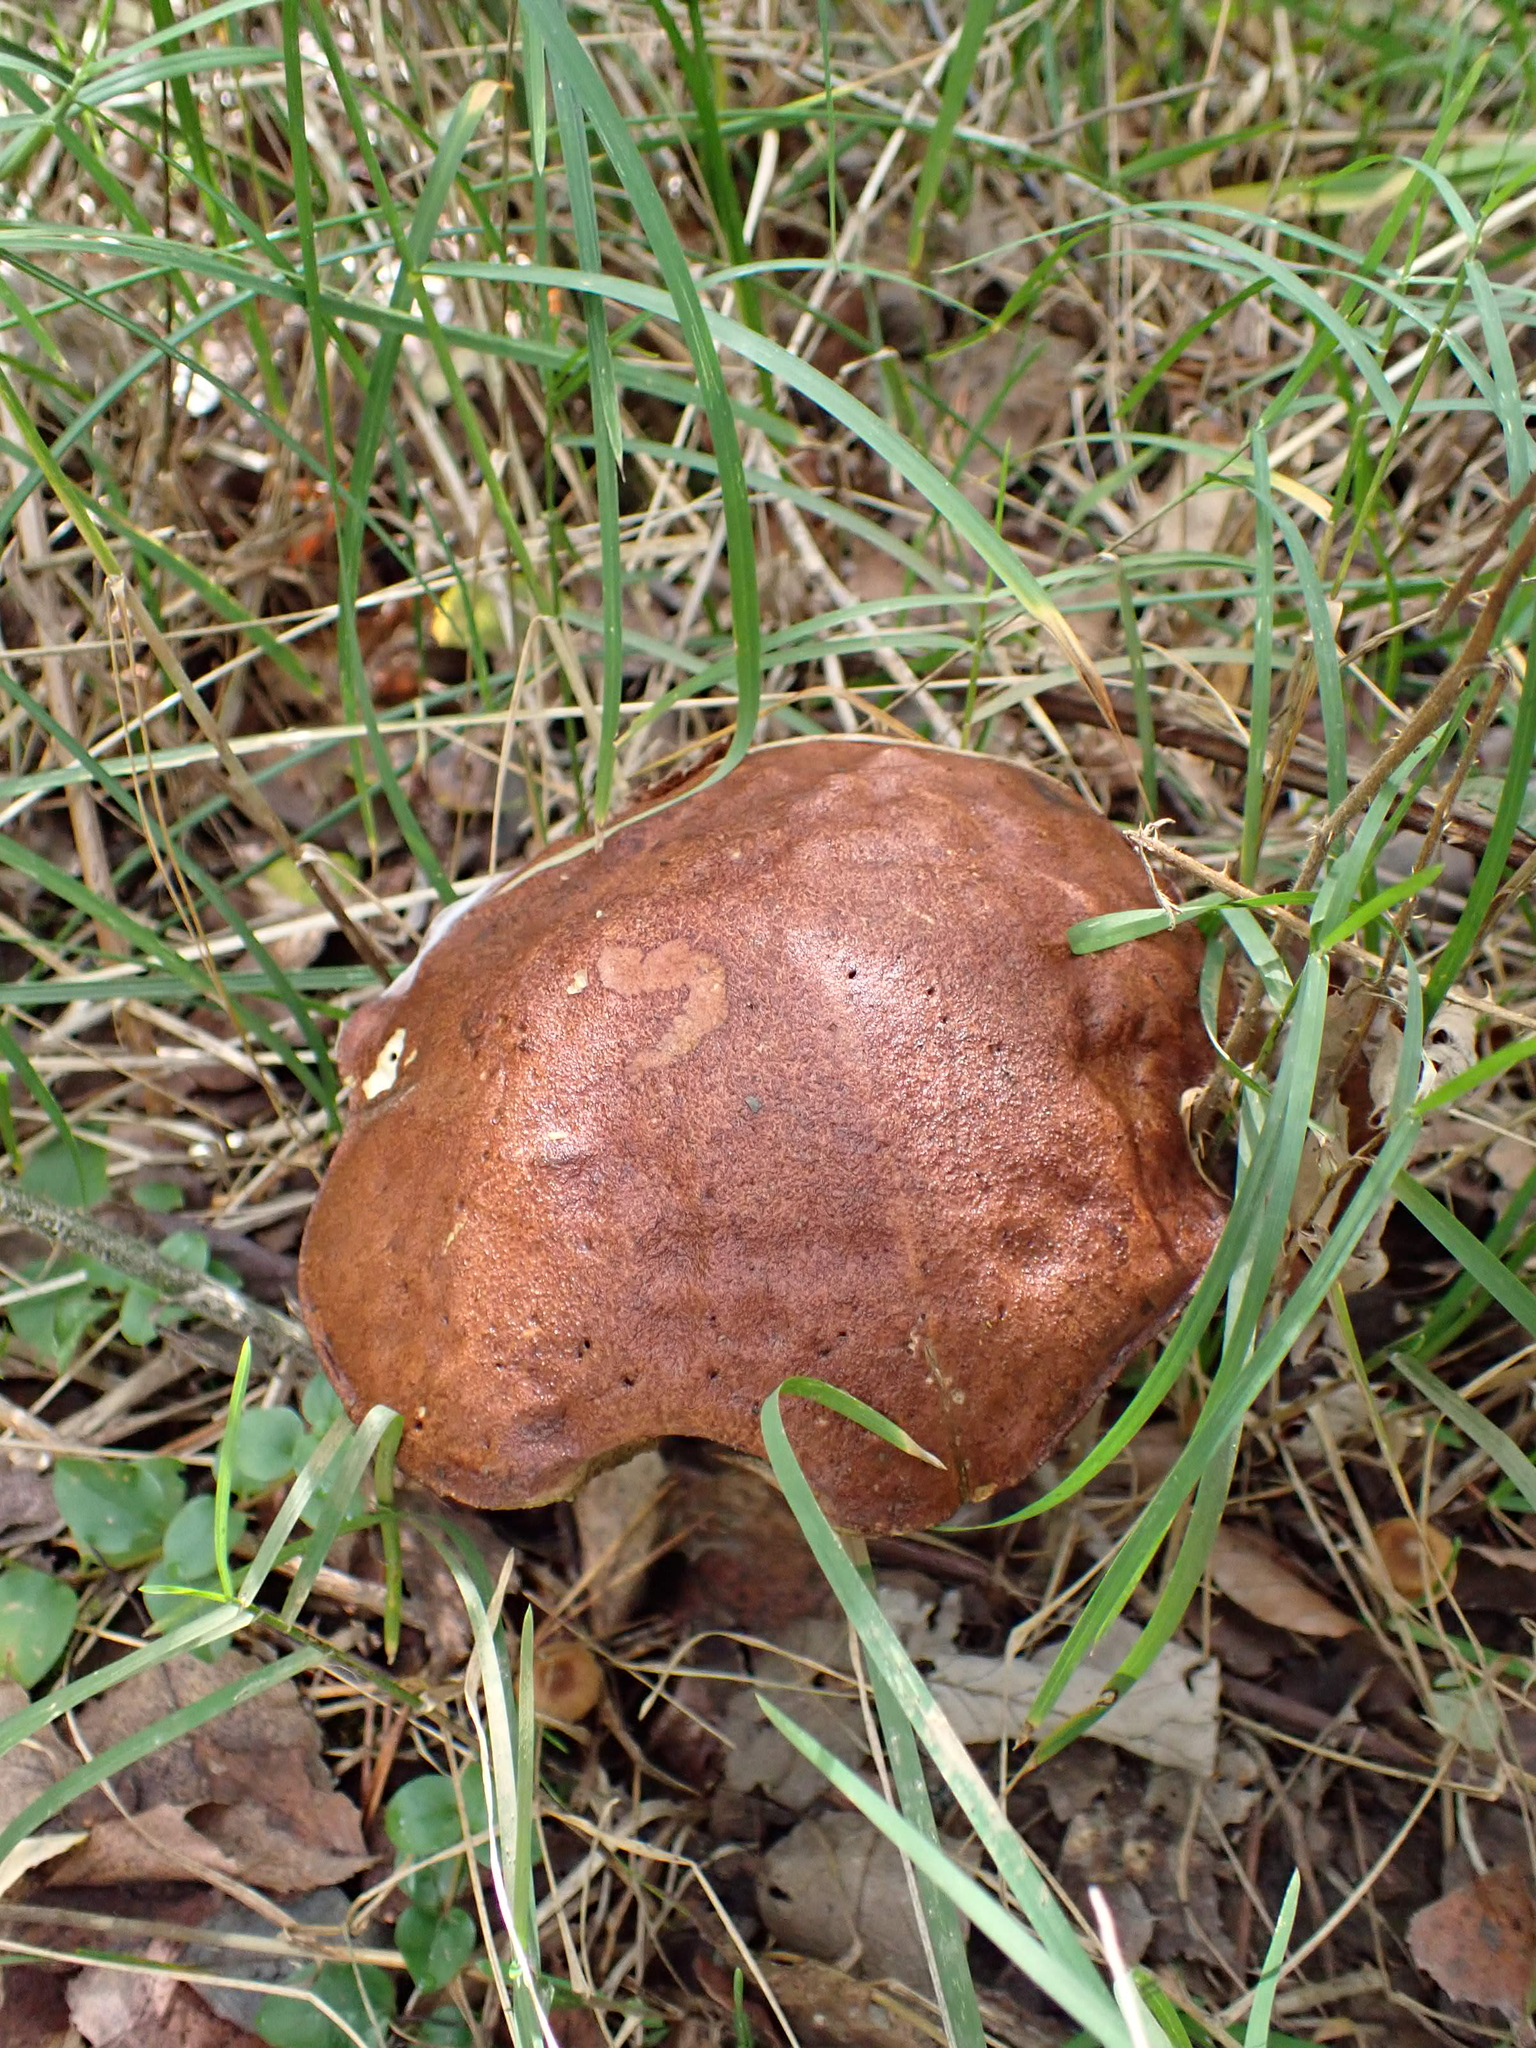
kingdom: Fungi
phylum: Basidiomycota
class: Agaricomycetes
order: Boletales
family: Boletaceae
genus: Leccinum
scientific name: Leccinum scabrum
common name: Blushing bolete
